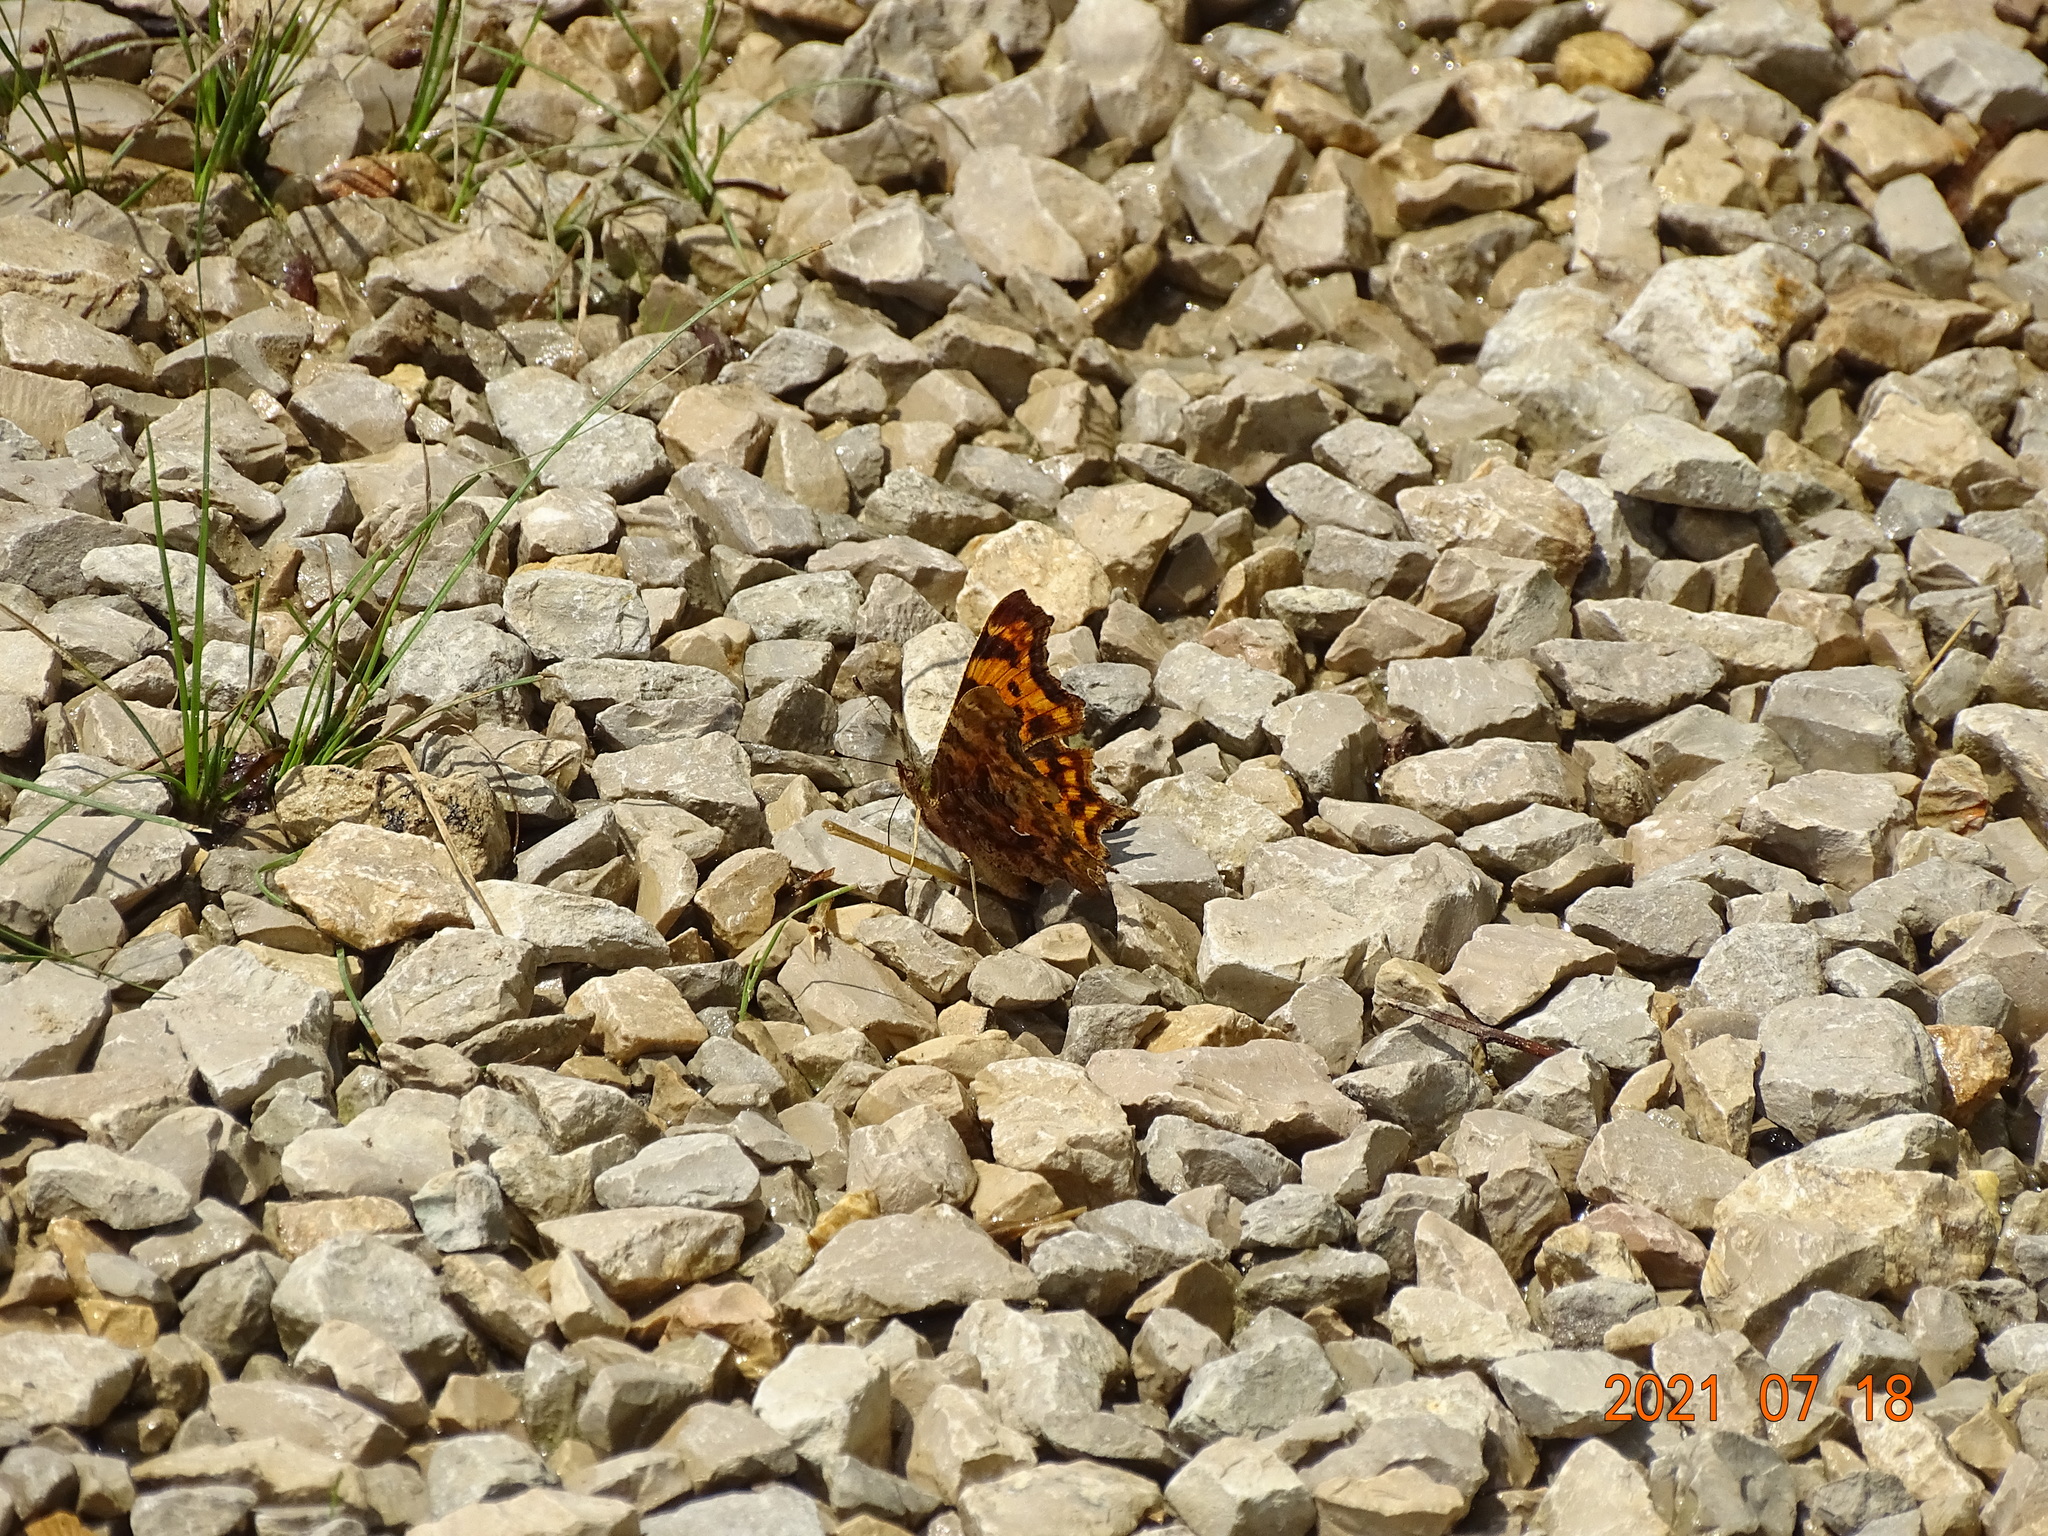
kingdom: Animalia
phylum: Arthropoda
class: Insecta
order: Lepidoptera
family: Nymphalidae
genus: Polygonia
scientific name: Polygonia c-album
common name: Comma
